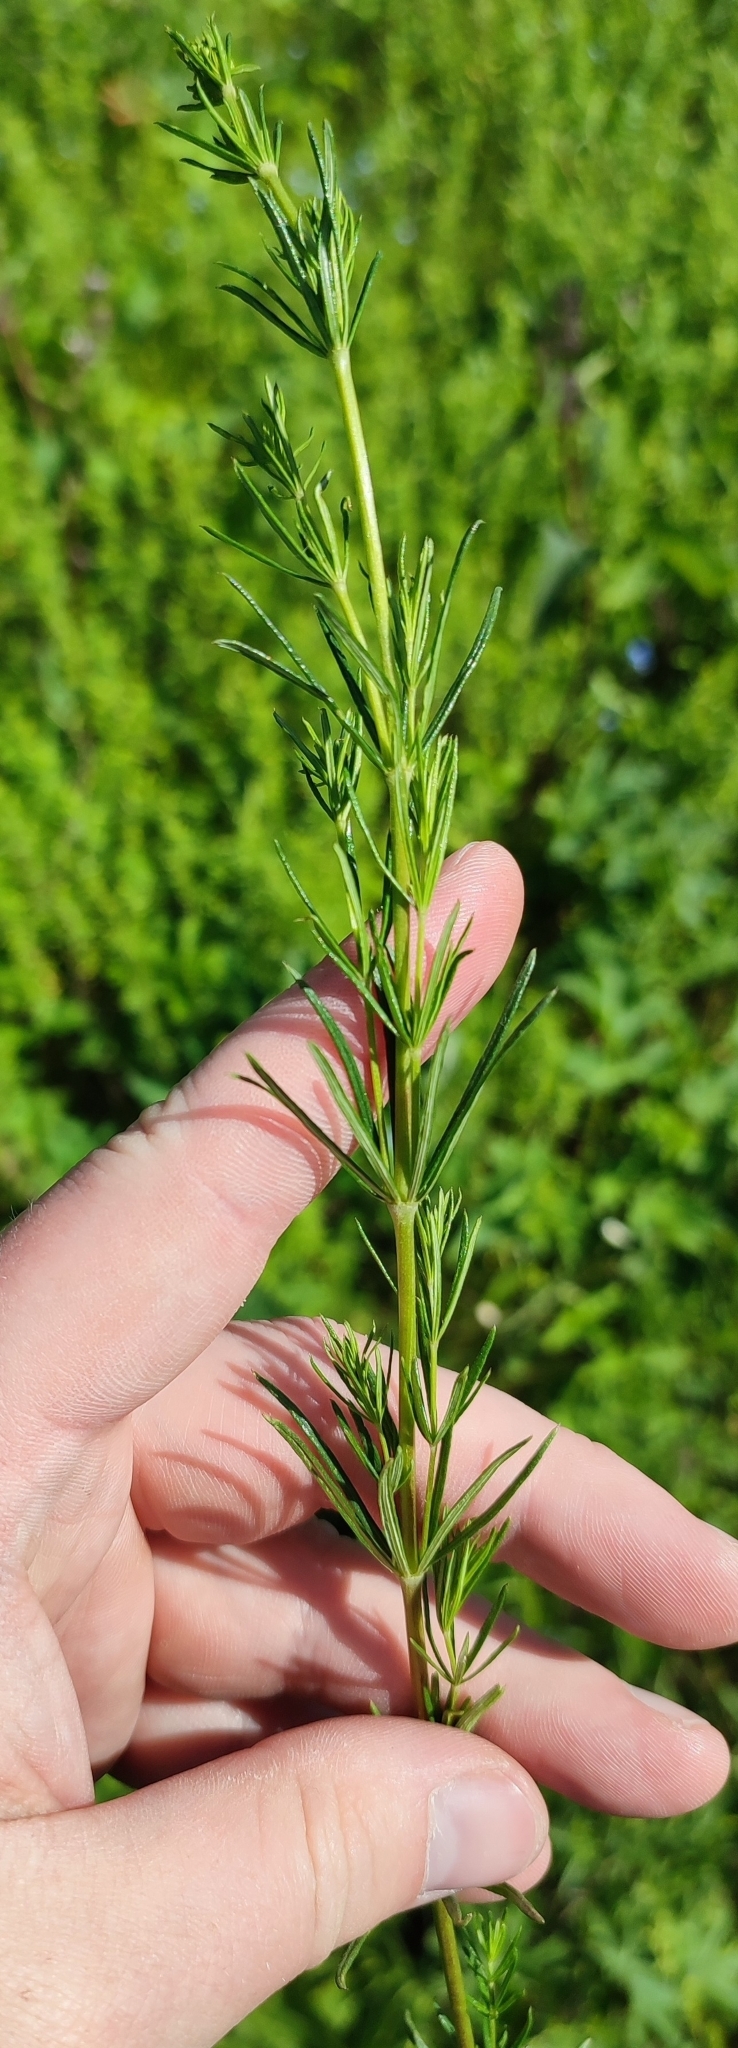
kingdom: Plantae
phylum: Tracheophyta
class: Magnoliopsida
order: Gentianales
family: Rubiaceae
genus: Galium
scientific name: Galium verum
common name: Lady's bedstraw
